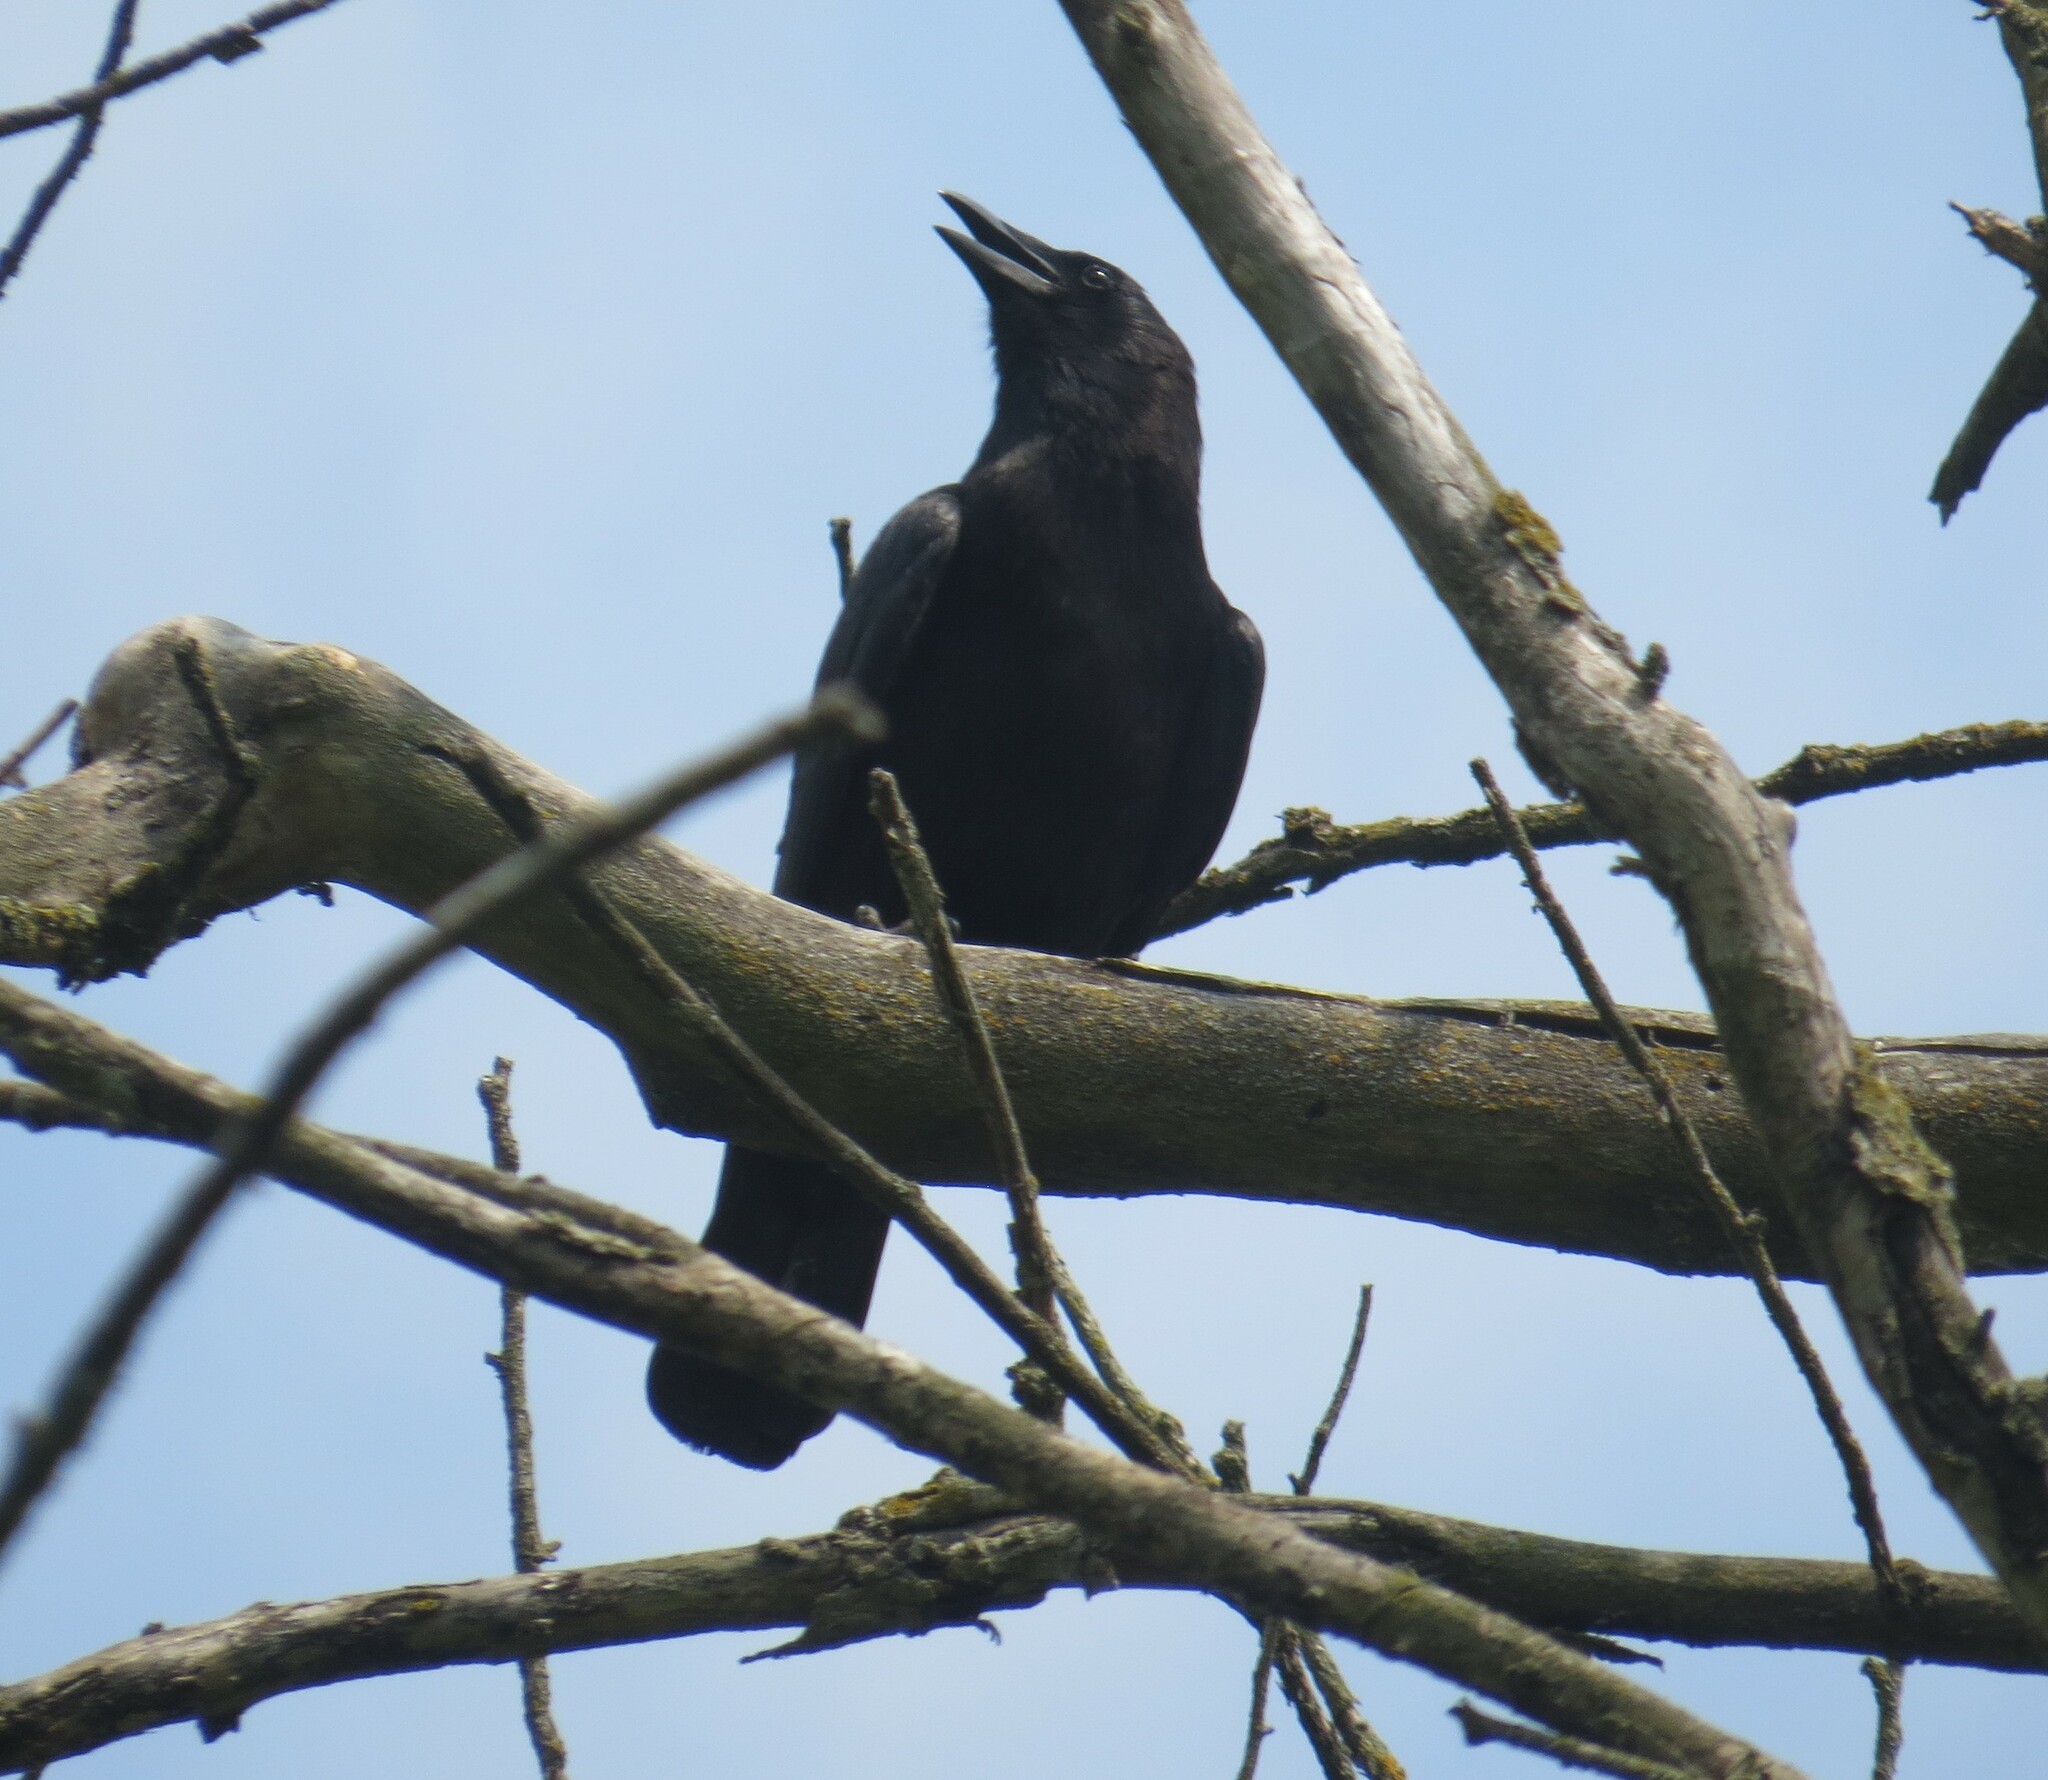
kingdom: Animalia
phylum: Chordata
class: Aves
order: Passeriformes
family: Corvidae
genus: Corvus
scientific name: Corvus brachyrhynchos
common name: American crow
